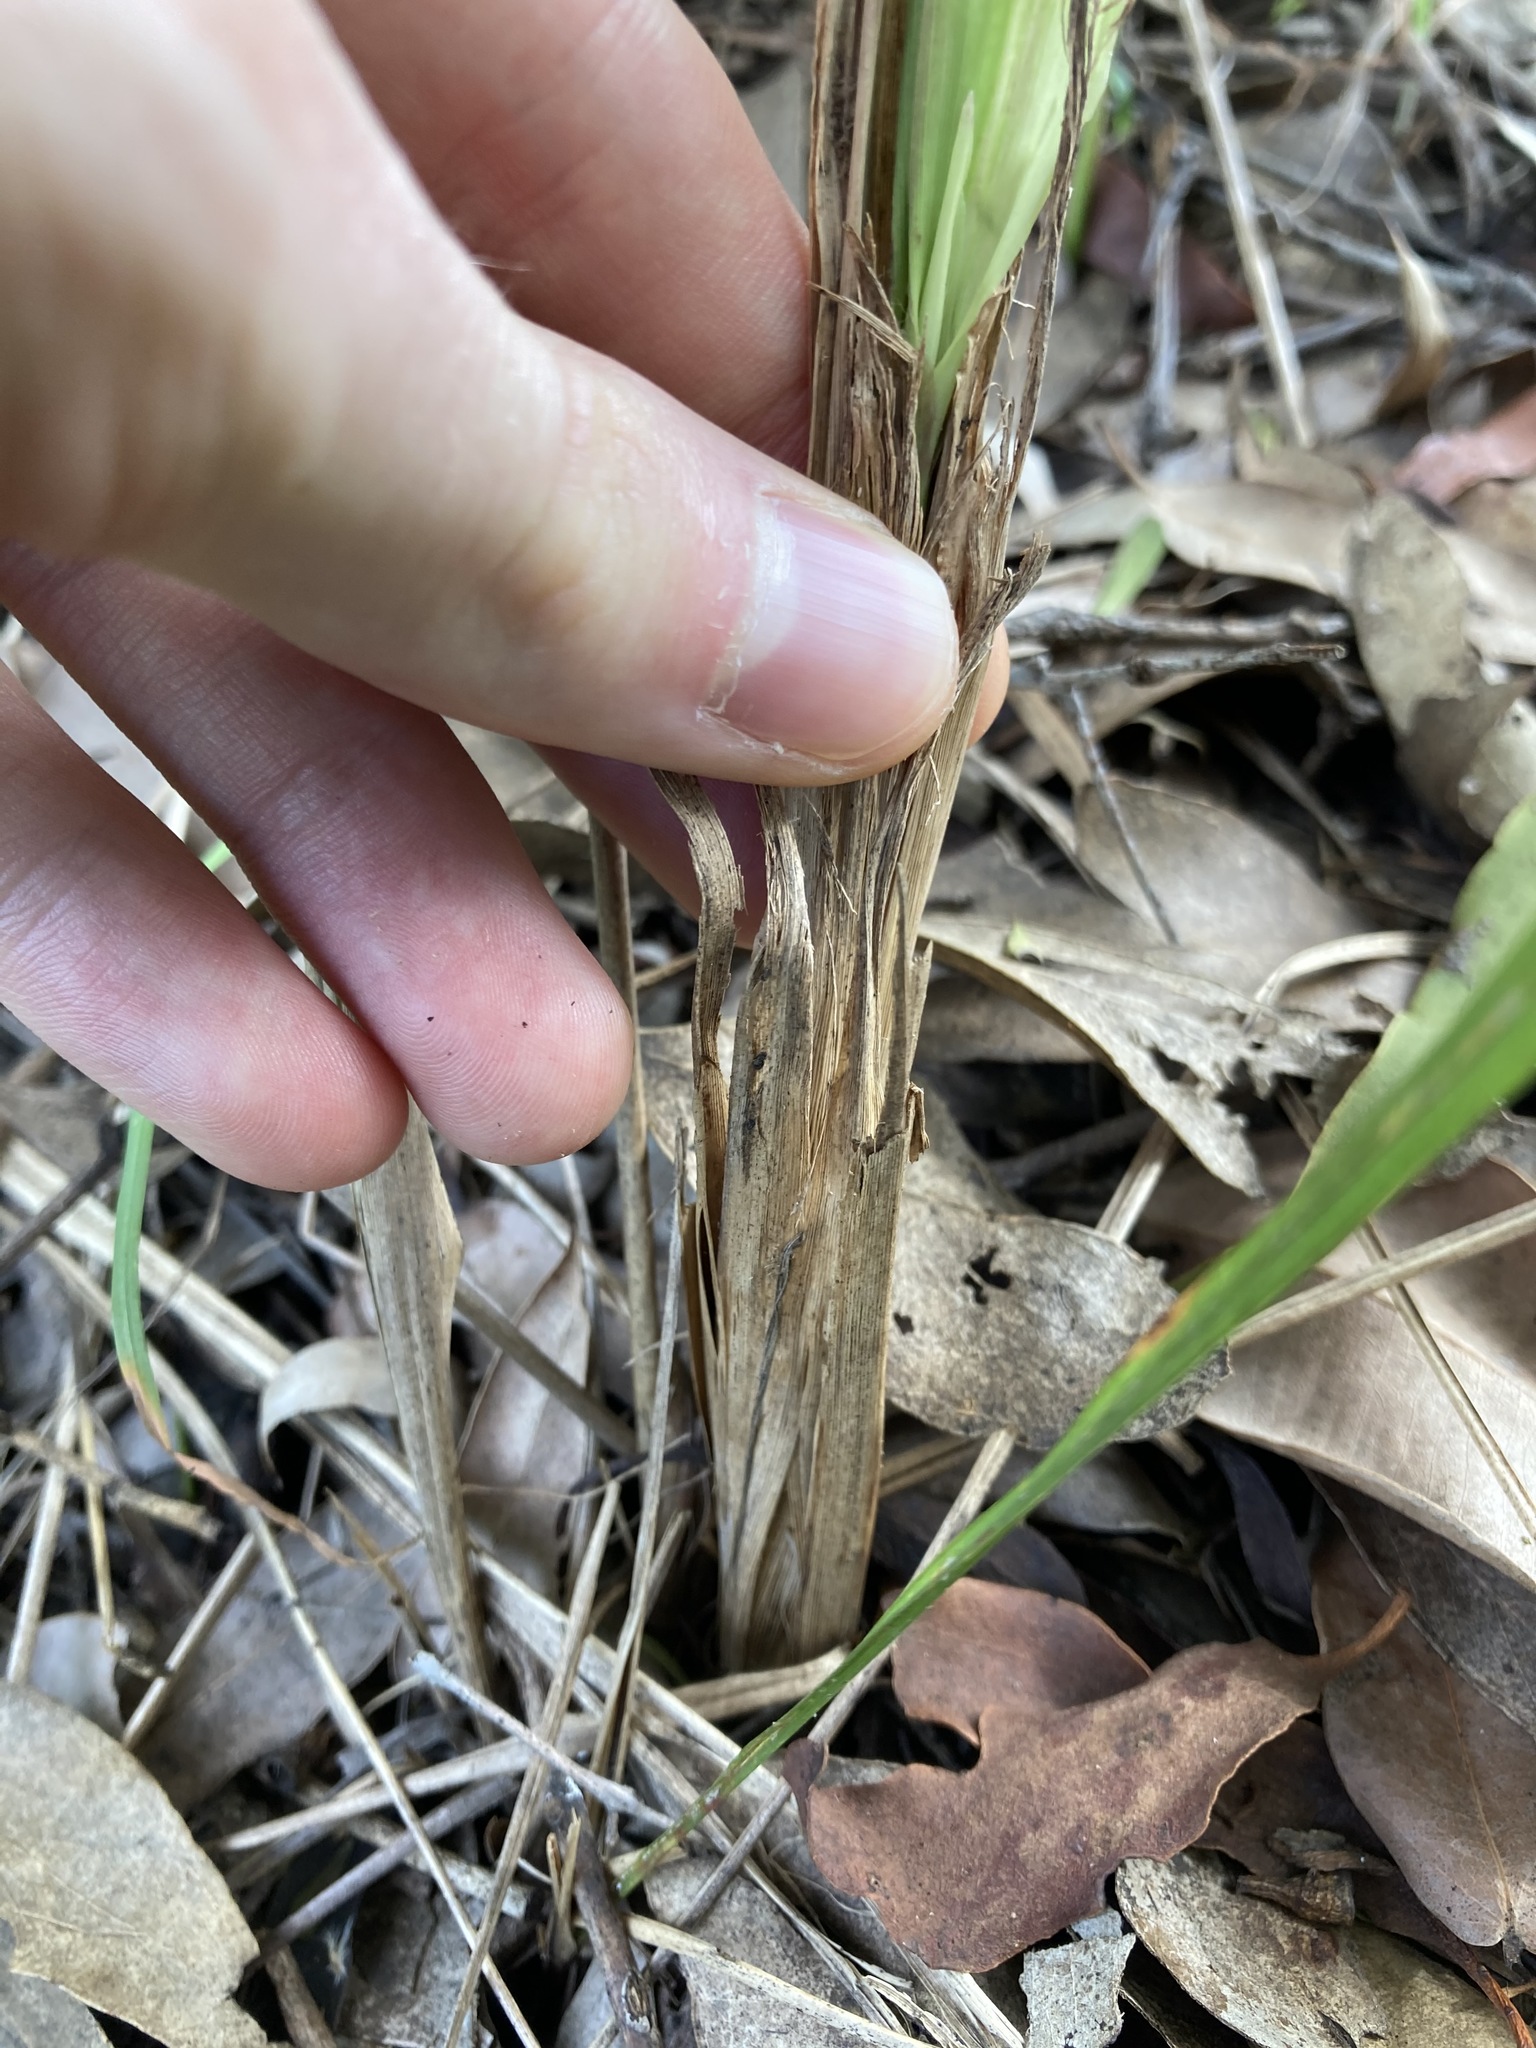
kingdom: Plantae
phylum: Tracheophyta
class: Liliopsida
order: Poales
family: Poaceae
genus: Imperata
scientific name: Imperata cylindrica
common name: Cogongrass
